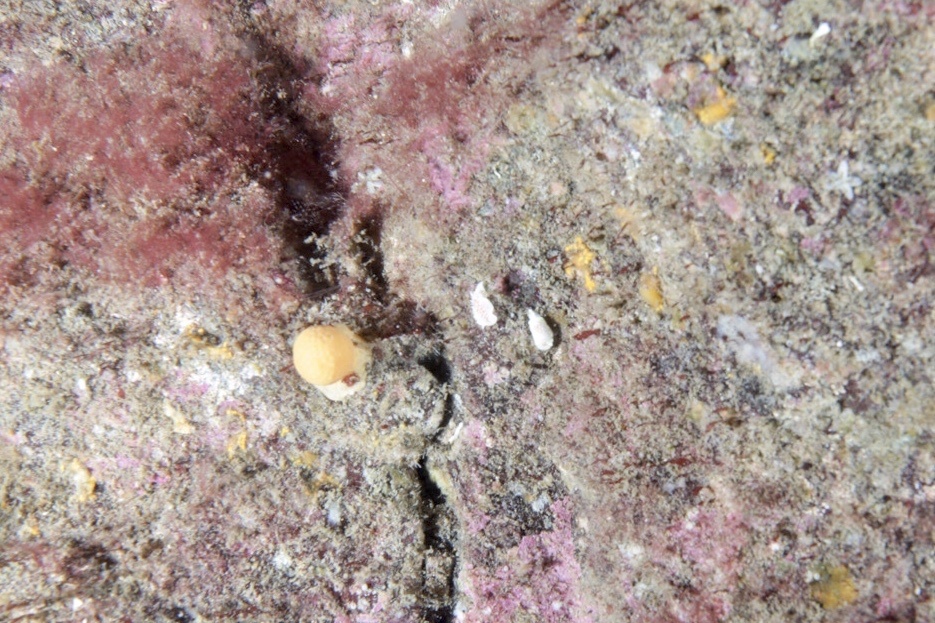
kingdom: Animalia
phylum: Mollusca
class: Gastropoda
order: Nudibranchia
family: Calycidorididae
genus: Diaphorodoris
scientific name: Diaphorodoris luteocincta
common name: Fried egg nudibranch
